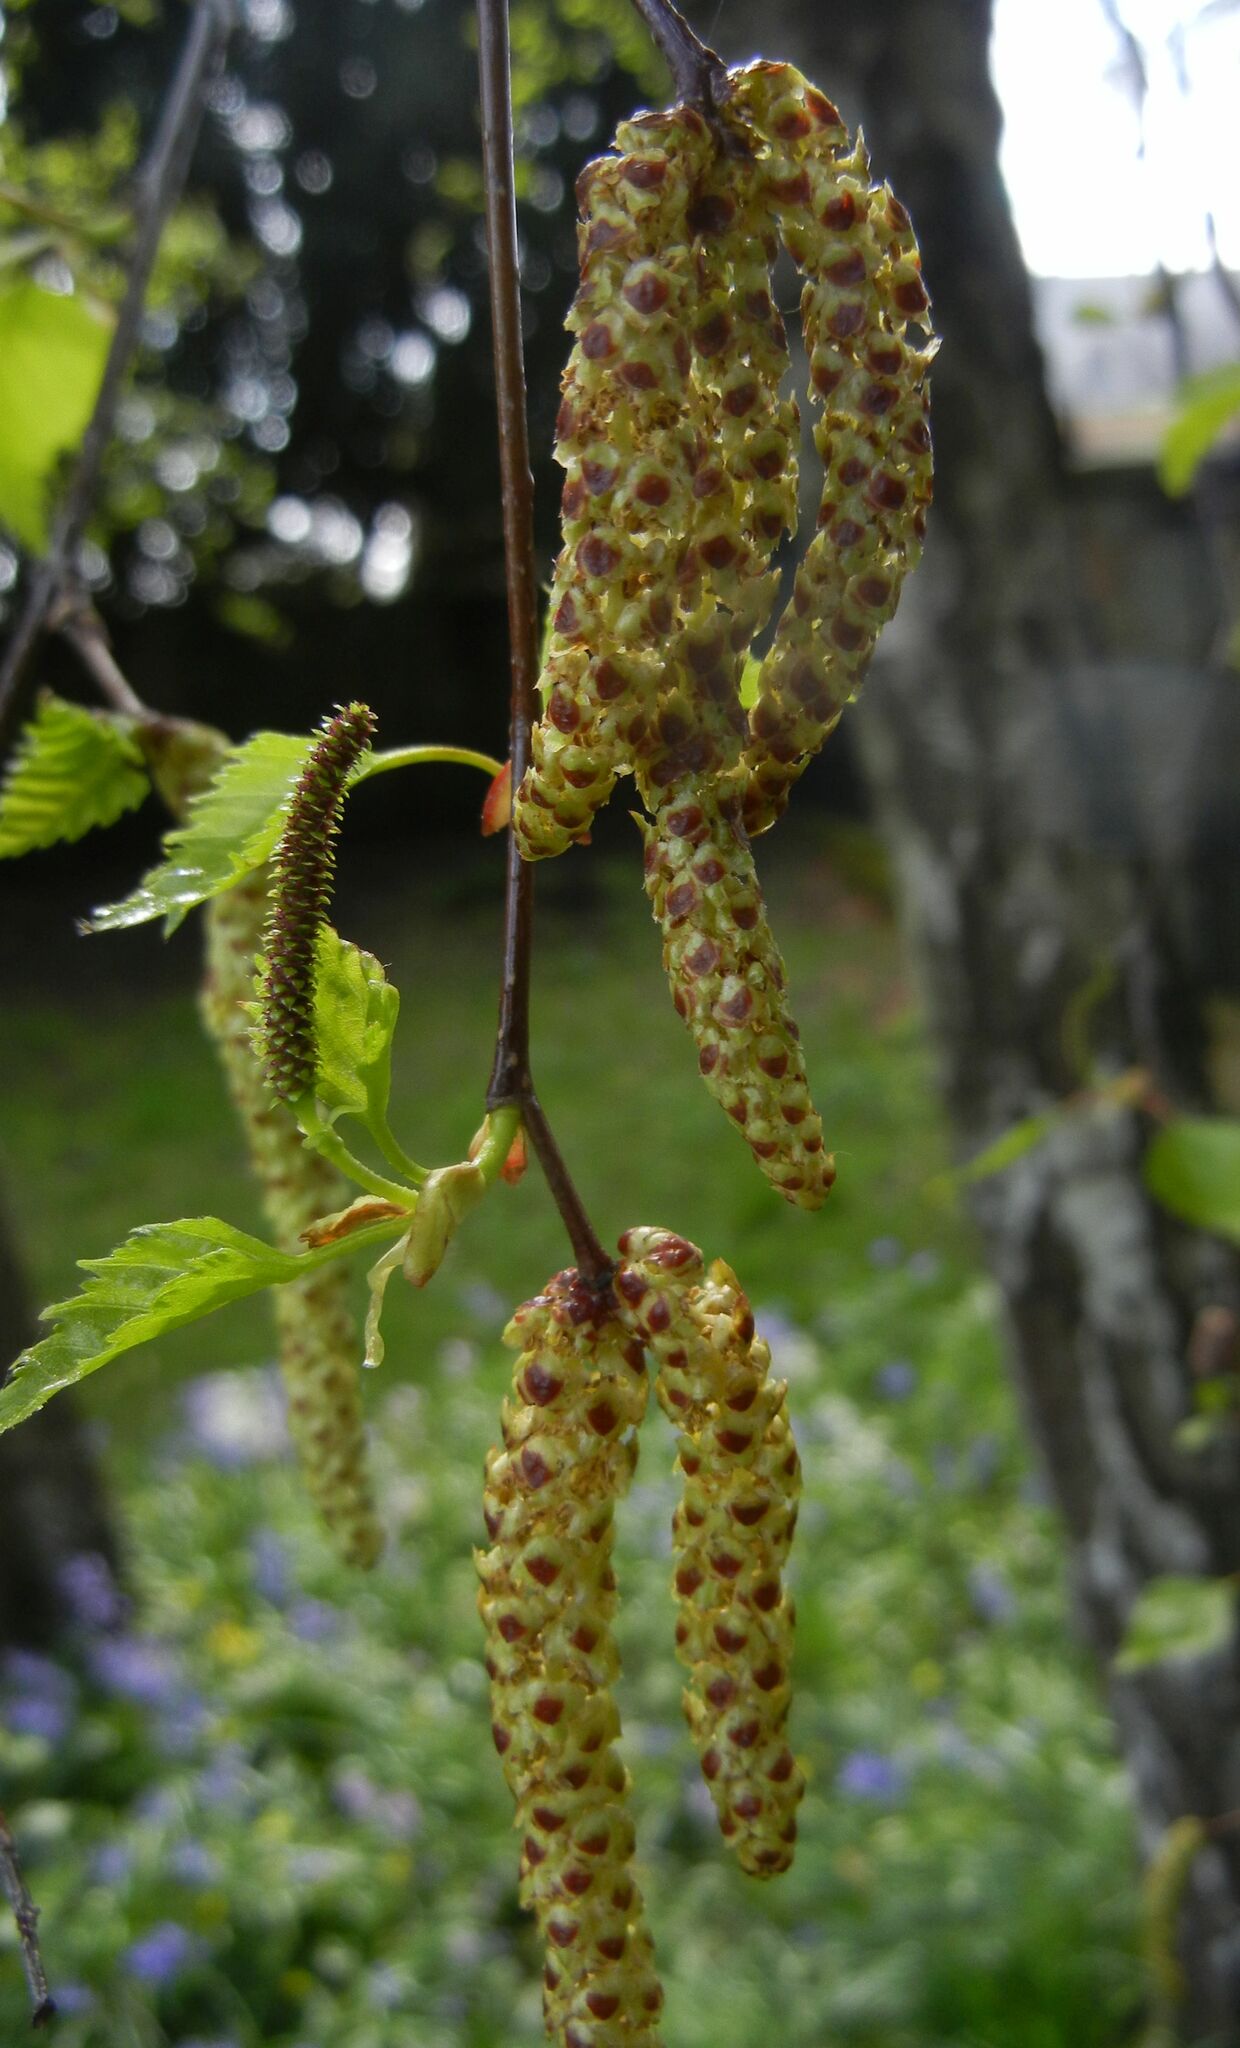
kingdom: Plantae
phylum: Tracheophyta
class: Magnoliopsida
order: Fagales
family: Betulaceae
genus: Betula
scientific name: Betula pendula
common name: Silver birch
